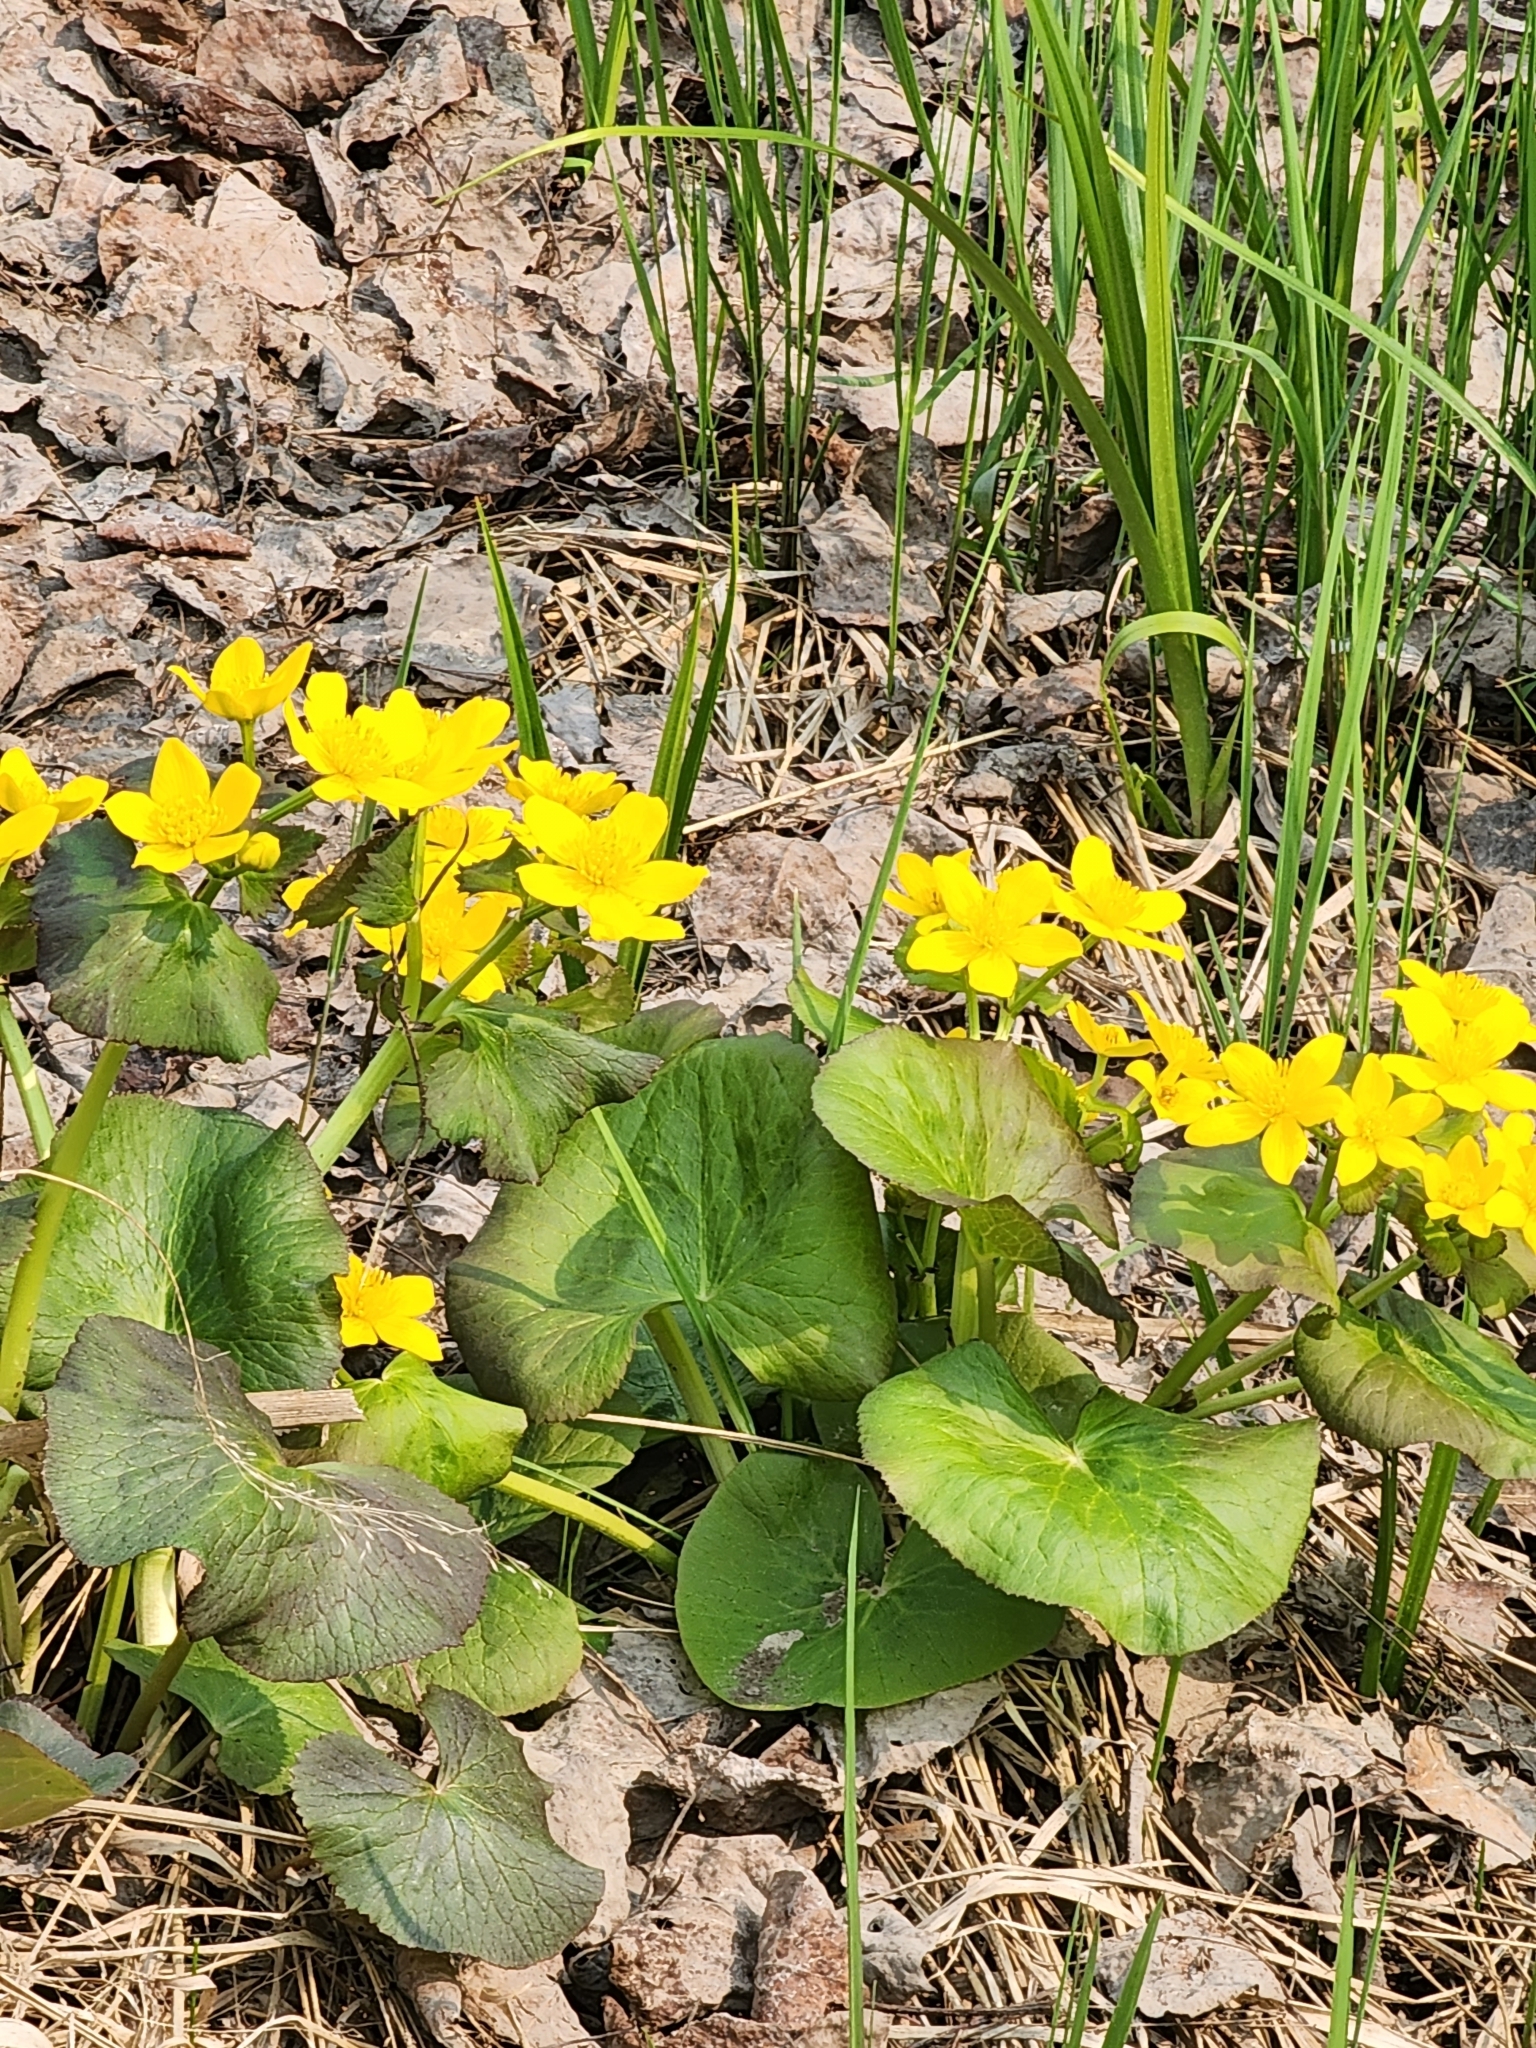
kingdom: Plantae
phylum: Tracheophyta
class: Magnoliopsida
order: Ranunculales
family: Ranunculaceae
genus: Caltha
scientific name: Caltha palustris
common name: Marsh marigold
